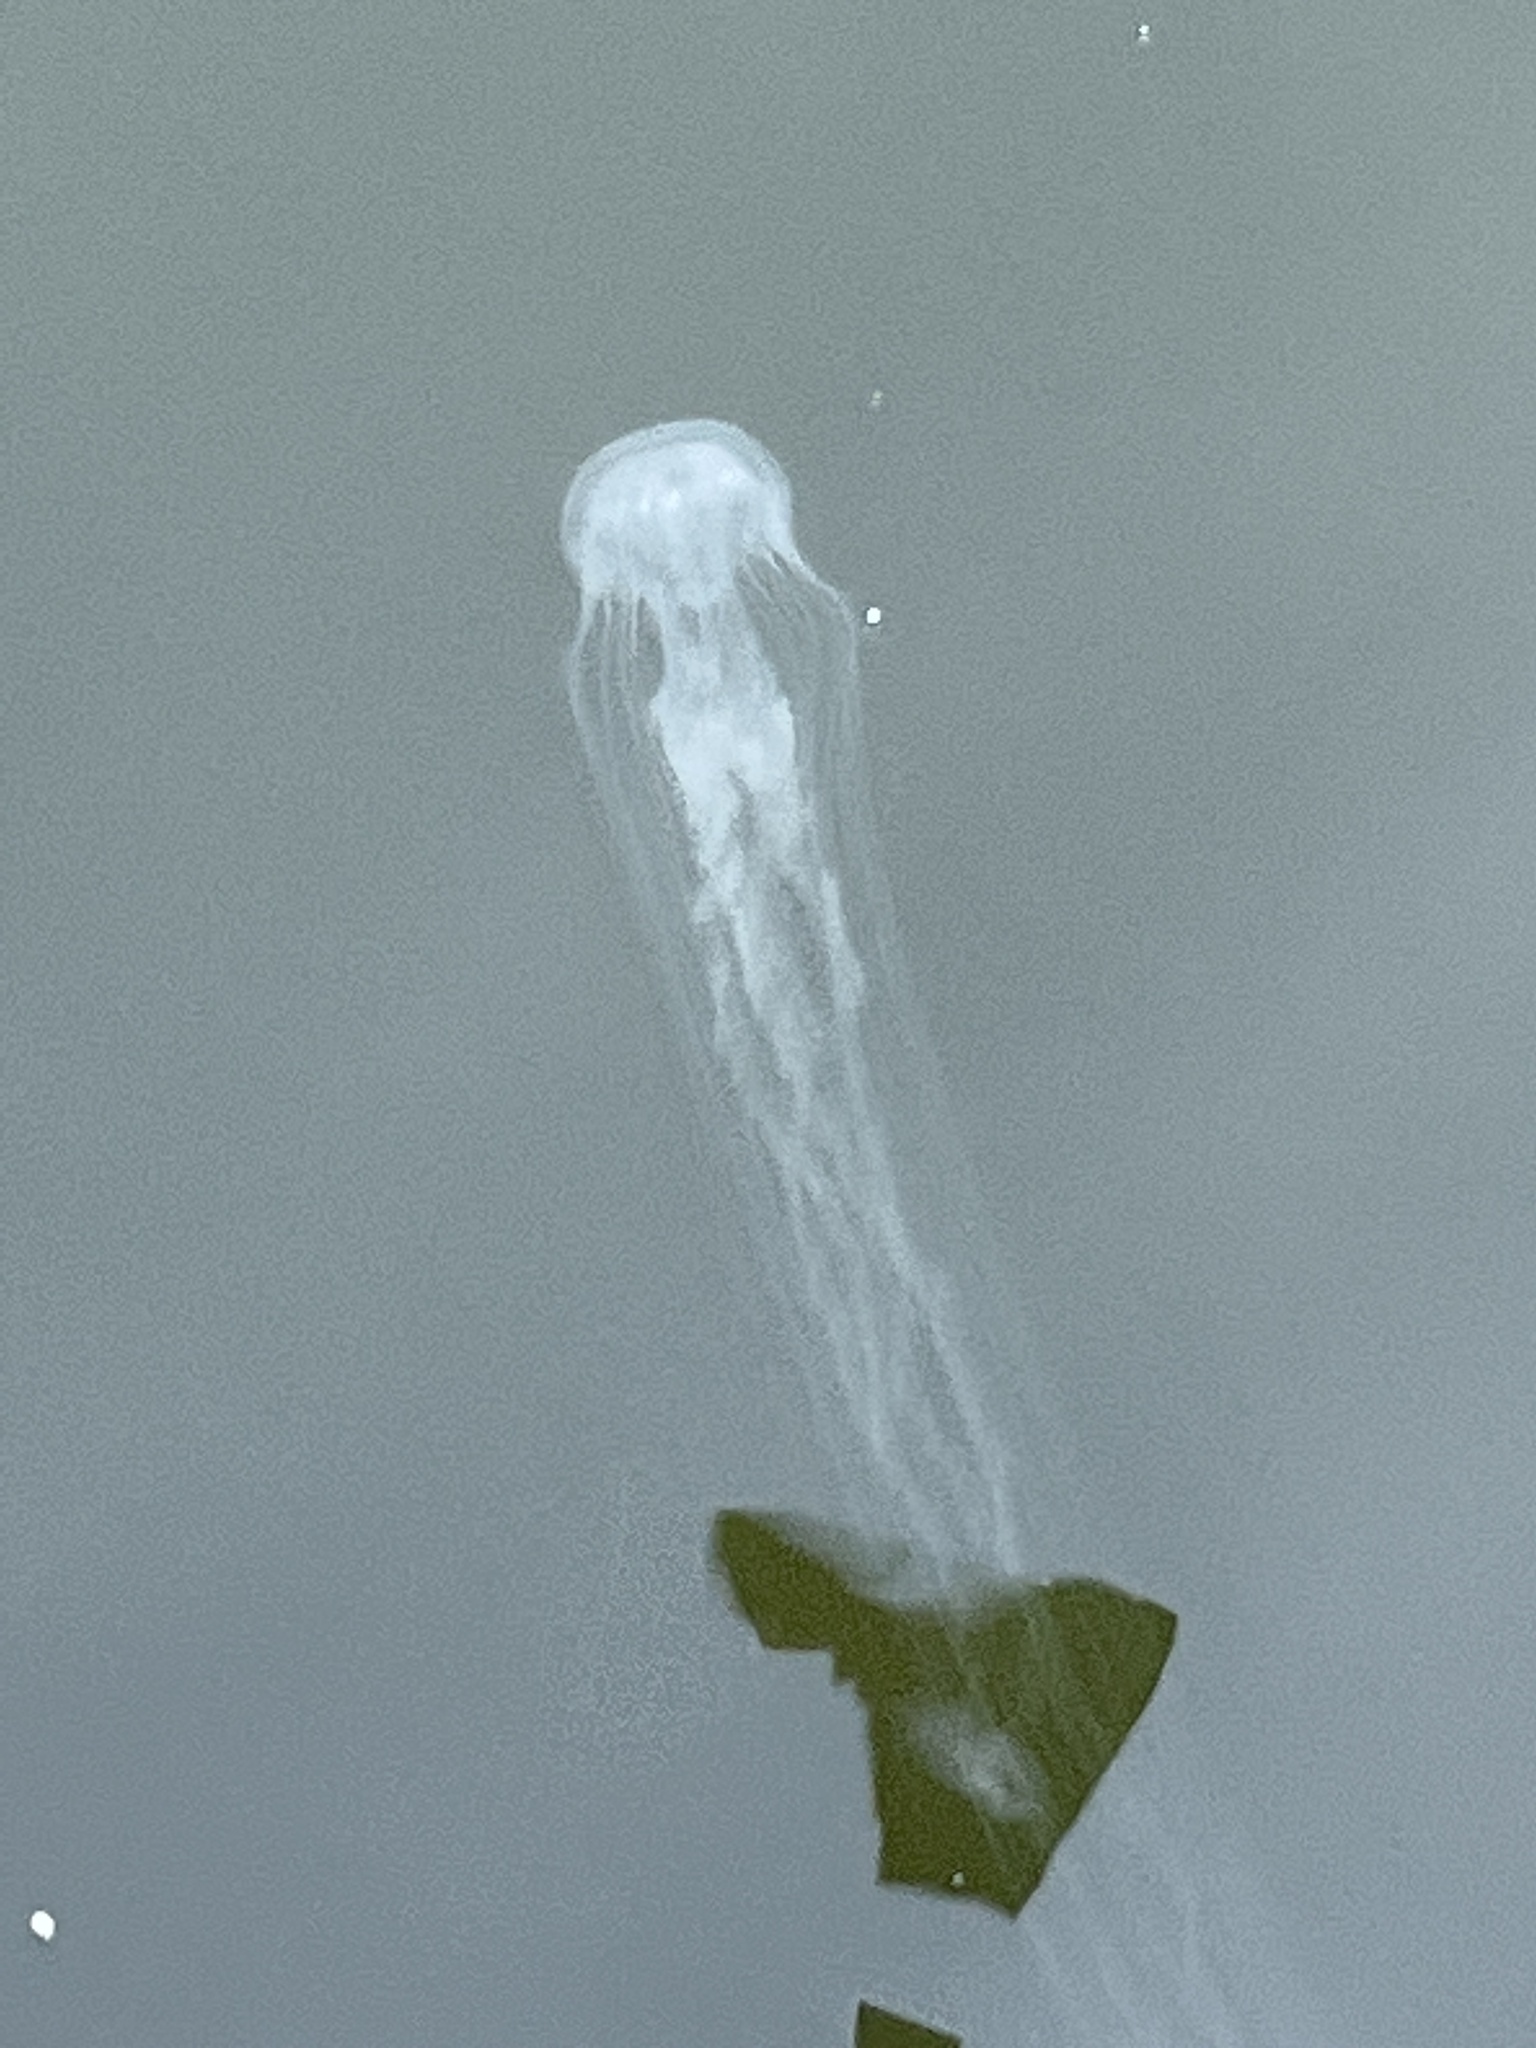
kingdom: Animalia
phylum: Cnidaria
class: Scyphozoa
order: Semaeostomeae
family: Pelagiidae
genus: Chrysaora
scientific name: Chrysaora chesapeakei
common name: Bay nettle
